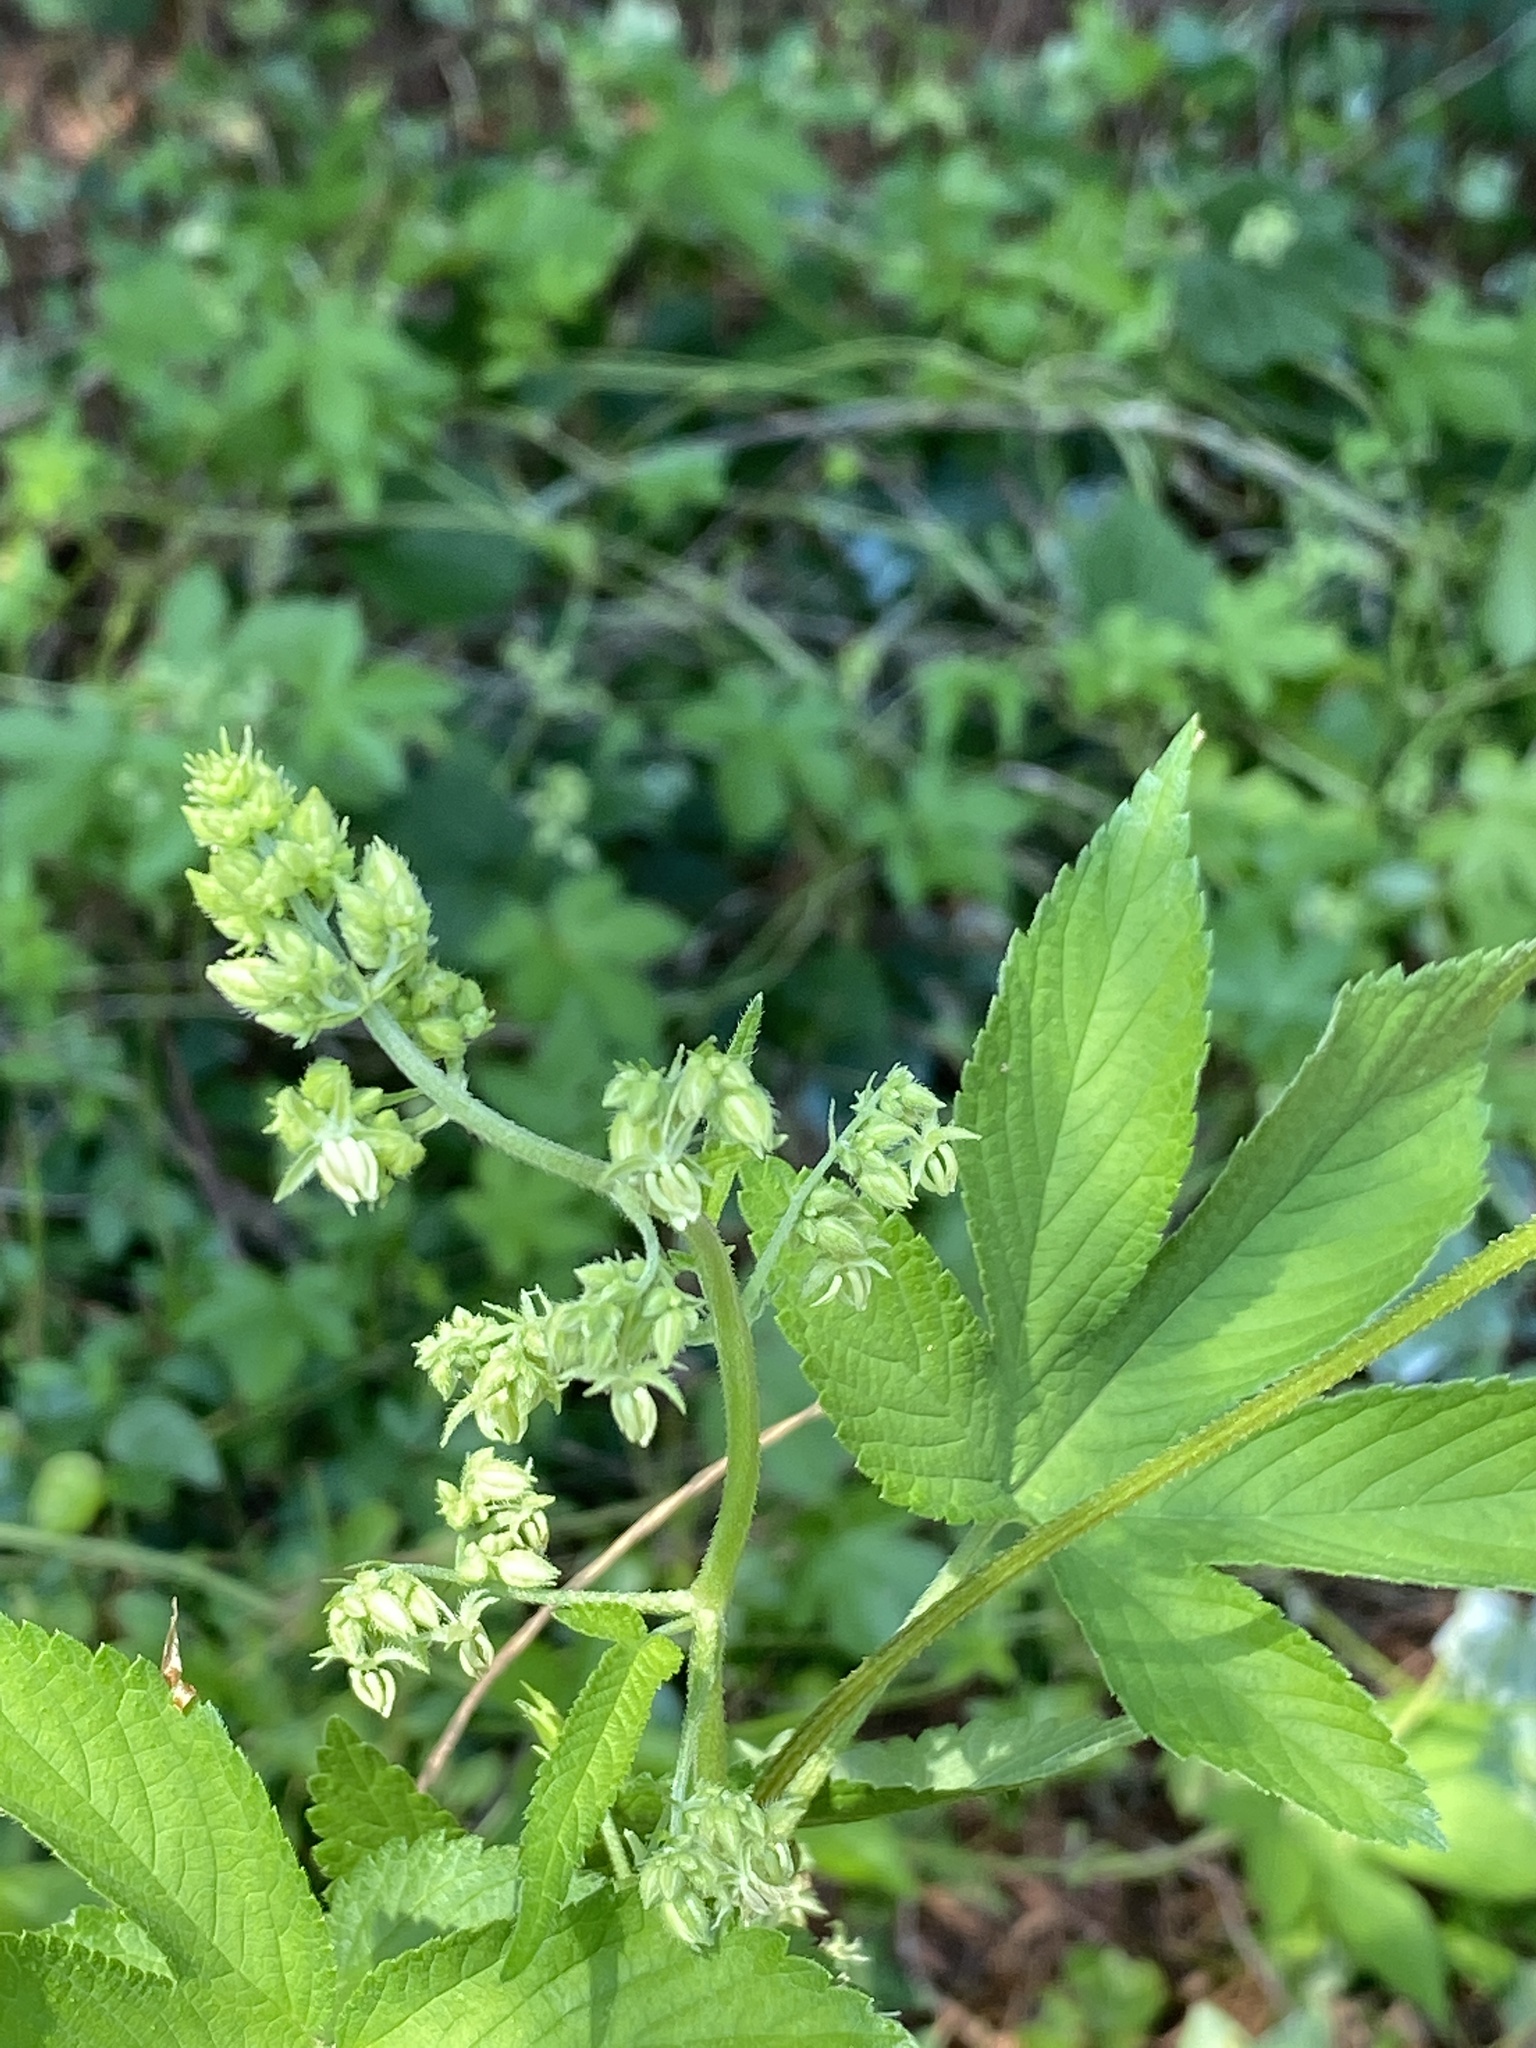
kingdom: Plantae
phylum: Tracheophyta
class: Magnoliopsida
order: Rosales
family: Cannabaceae
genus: Humulus
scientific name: Humulus scandens
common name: Japanese hop
